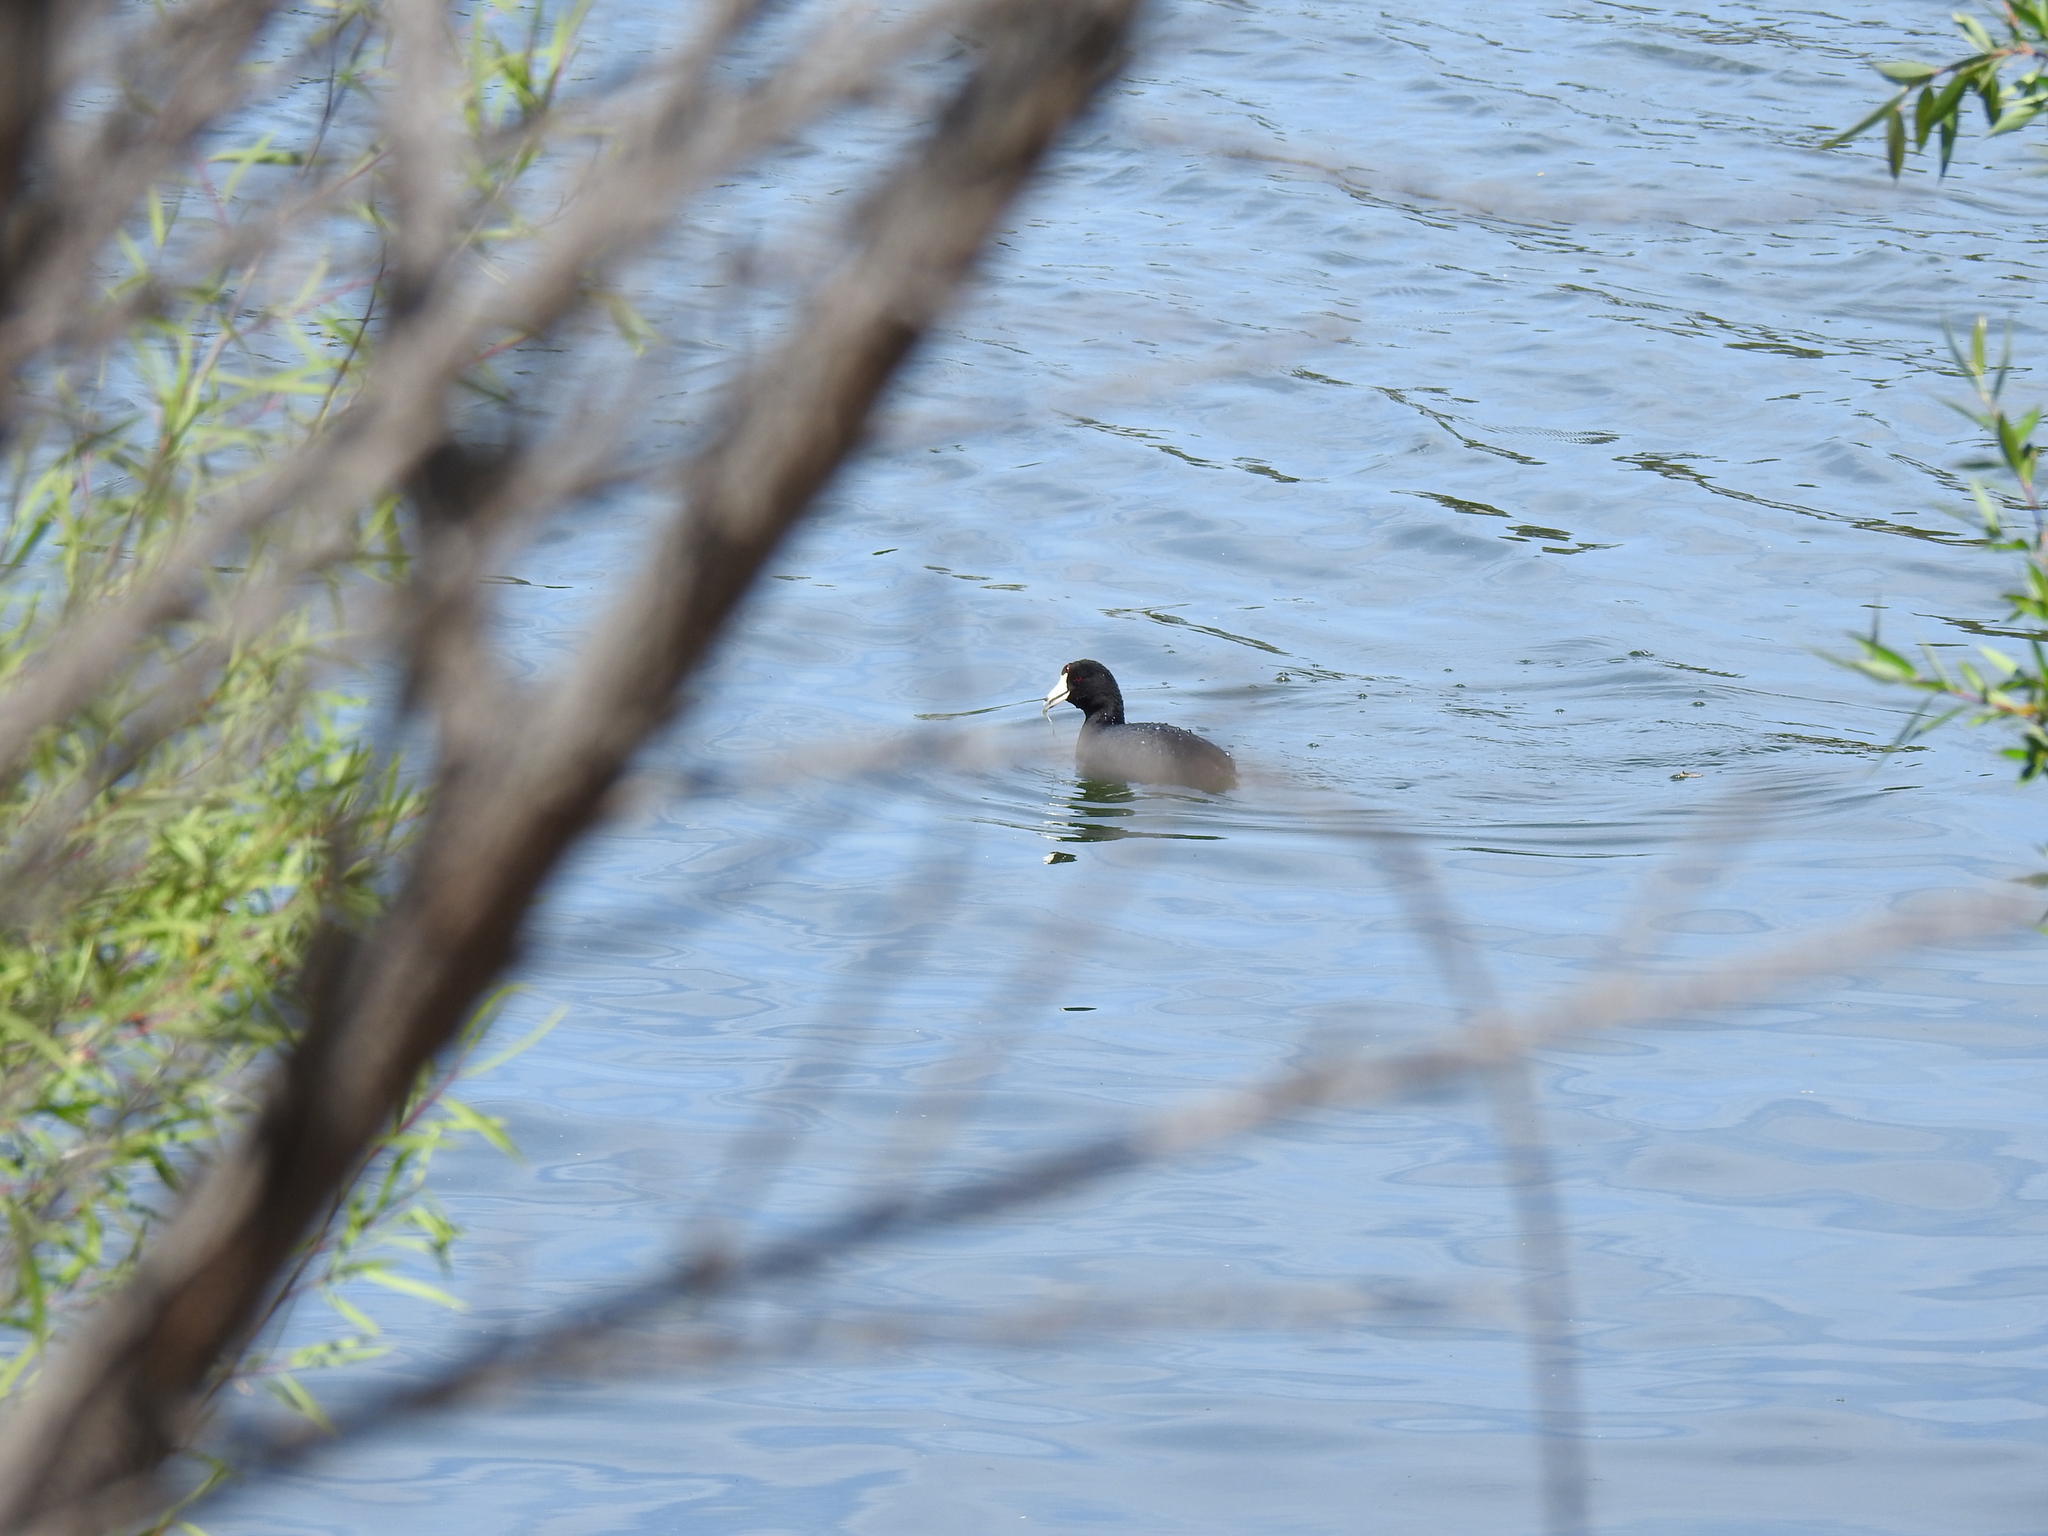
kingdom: Animalia
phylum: Chordata
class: Aves
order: Gruiformes
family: Rallidae
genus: Fulica
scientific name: Fulica americana
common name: American coot
